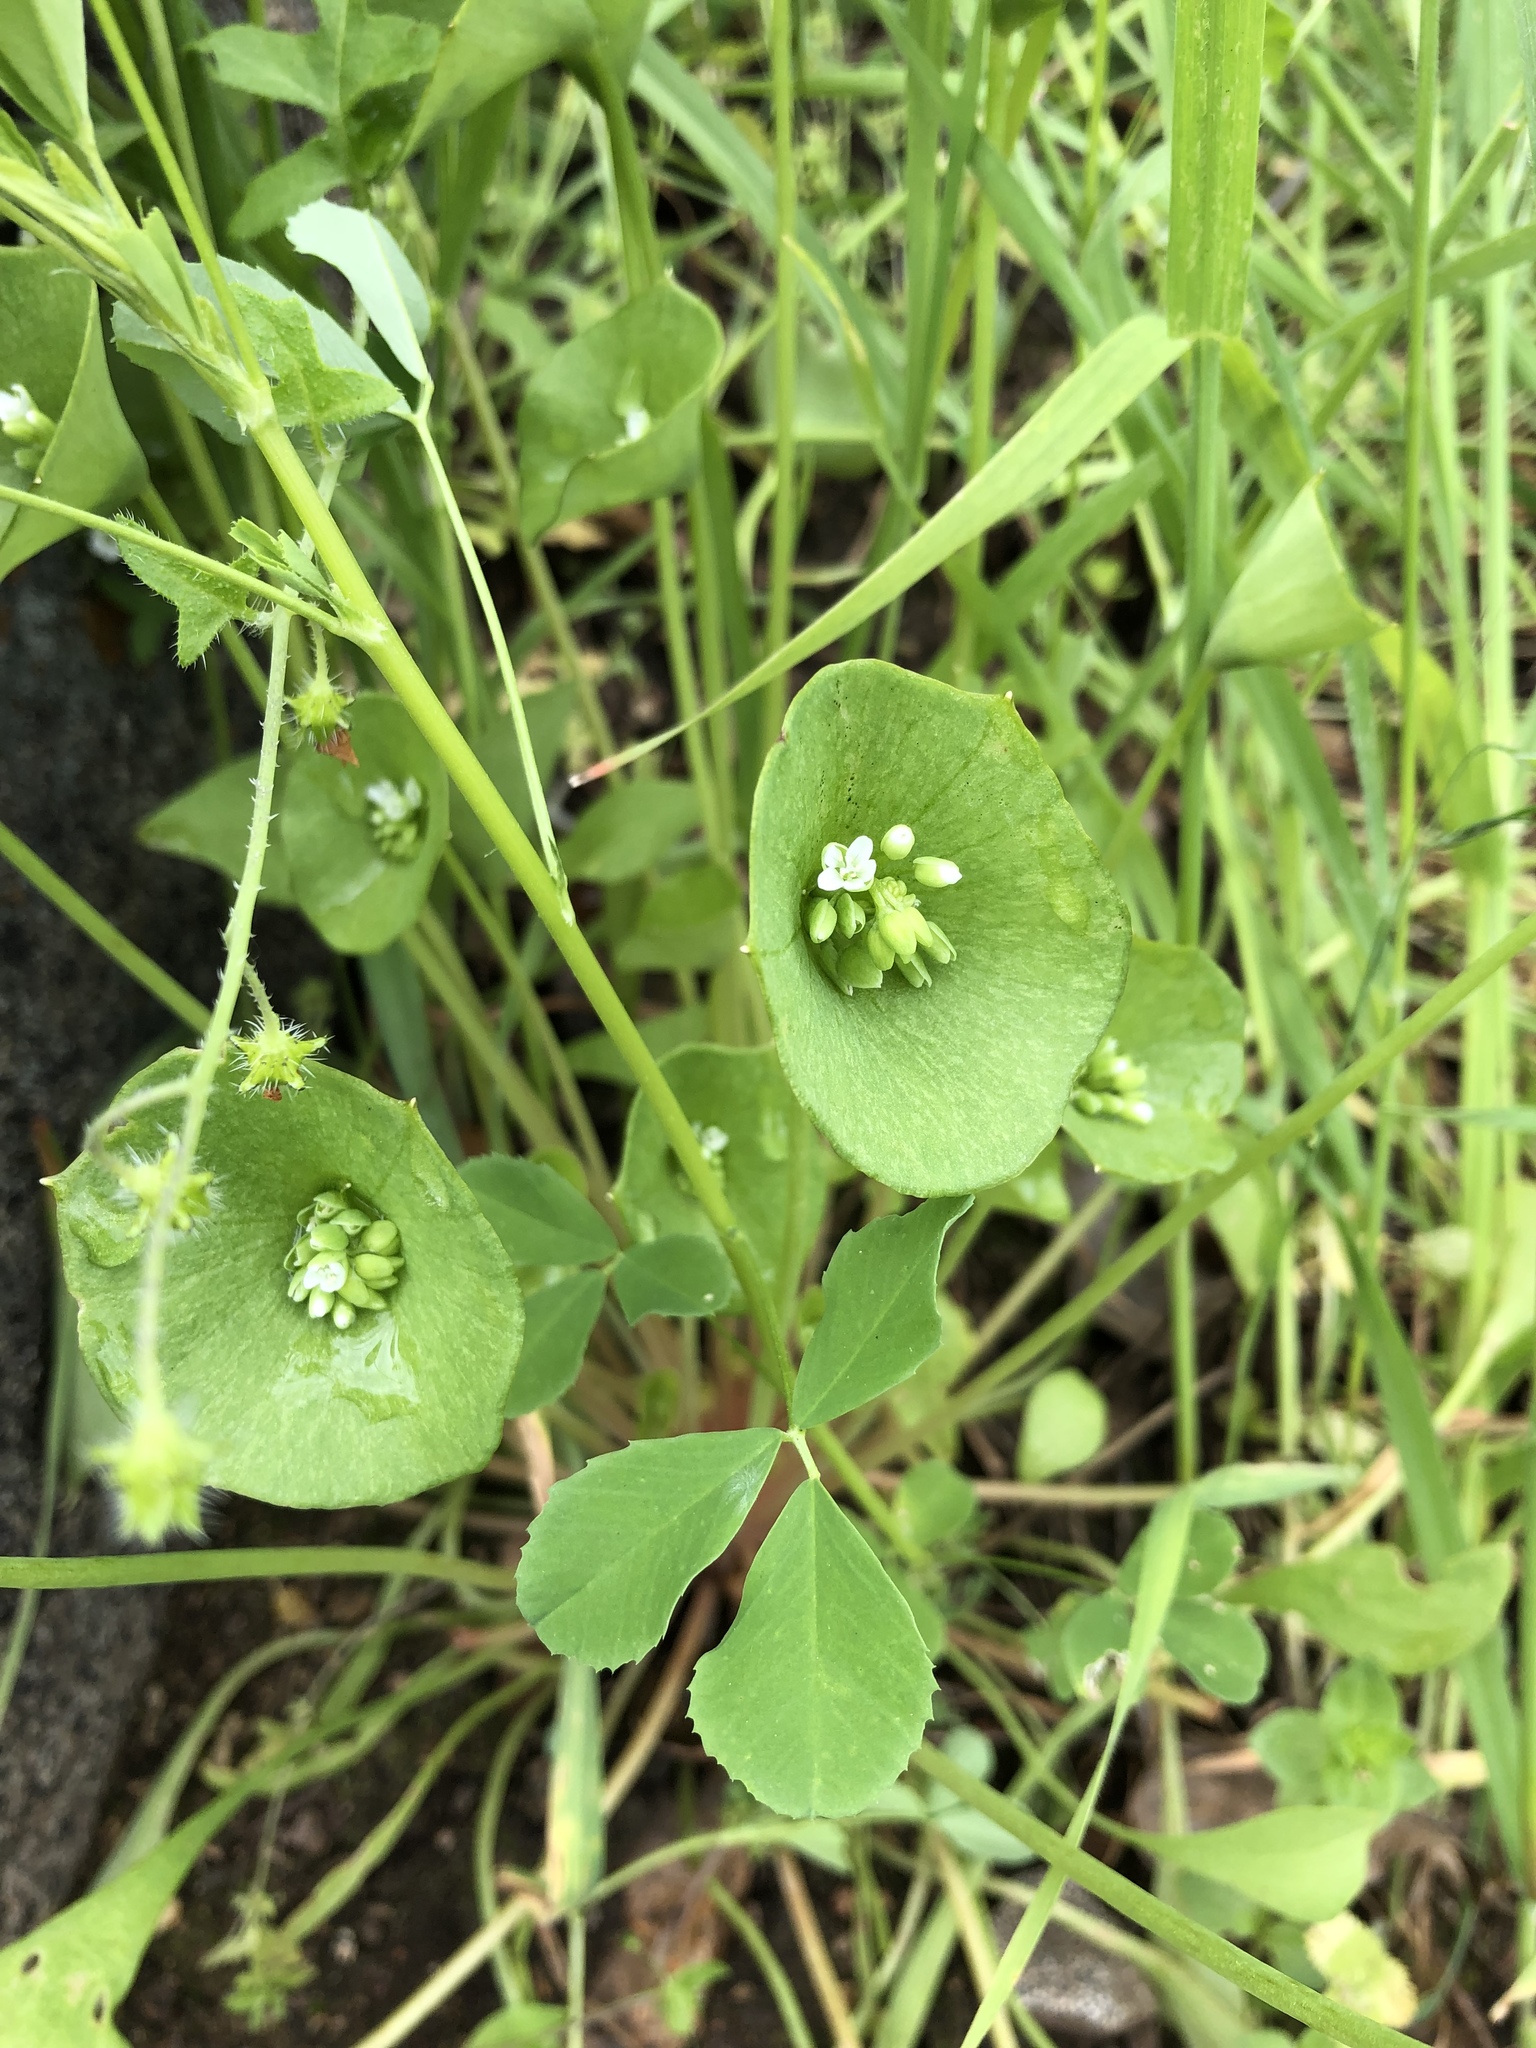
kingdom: Plantae
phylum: Tracheophyta
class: Magnoliopsida
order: Caryophyllales
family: Montiaceae
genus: Claytonia
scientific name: Claytonia perfoliata
